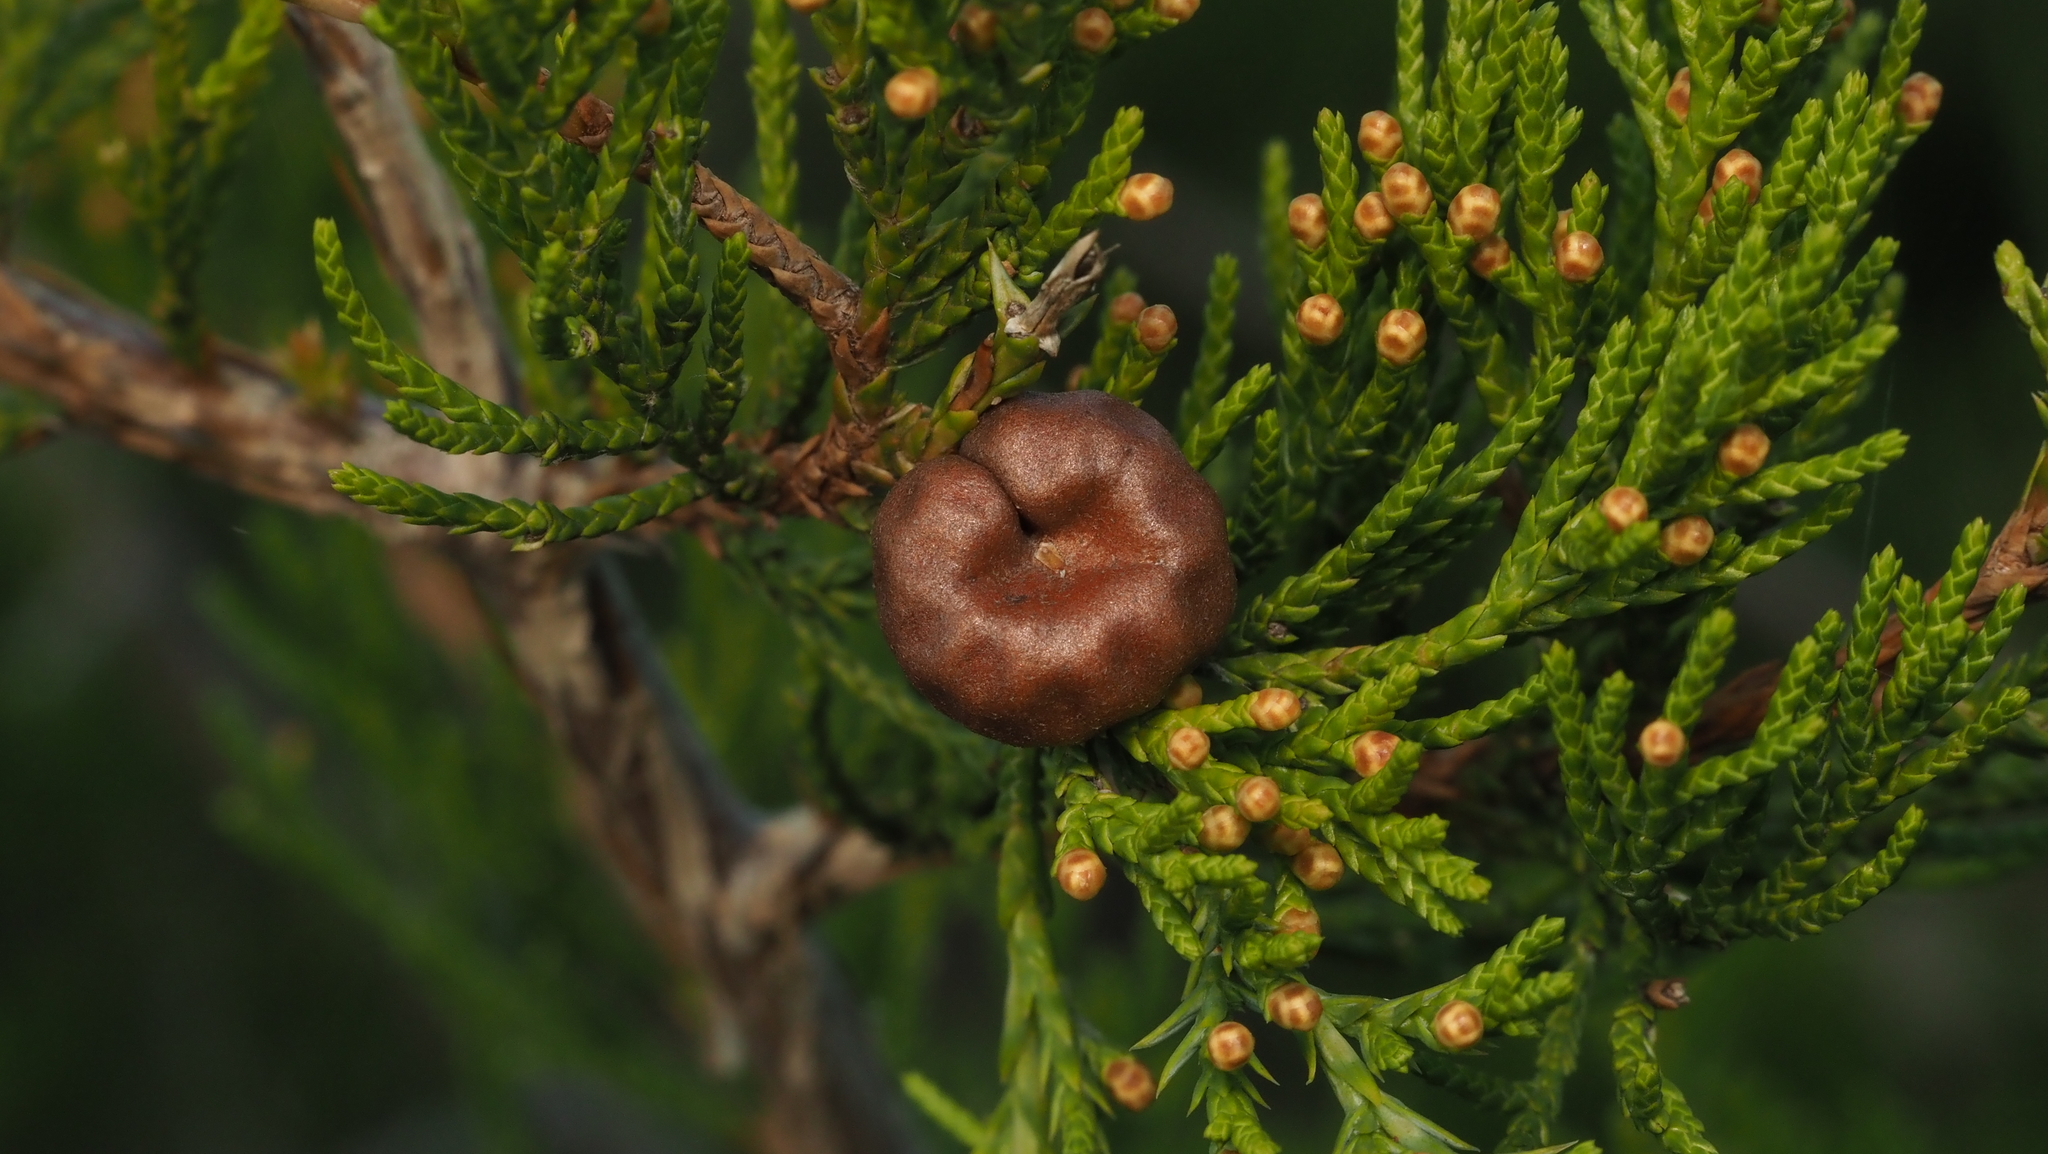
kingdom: Fungi
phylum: Basidiomycota
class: Pucciniomycetes
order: Pucciniales
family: Gymnosporangiaceae
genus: Gymnosporangium
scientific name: Gymnosporangium juniperi-virginianae
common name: Juniper-apple rust
